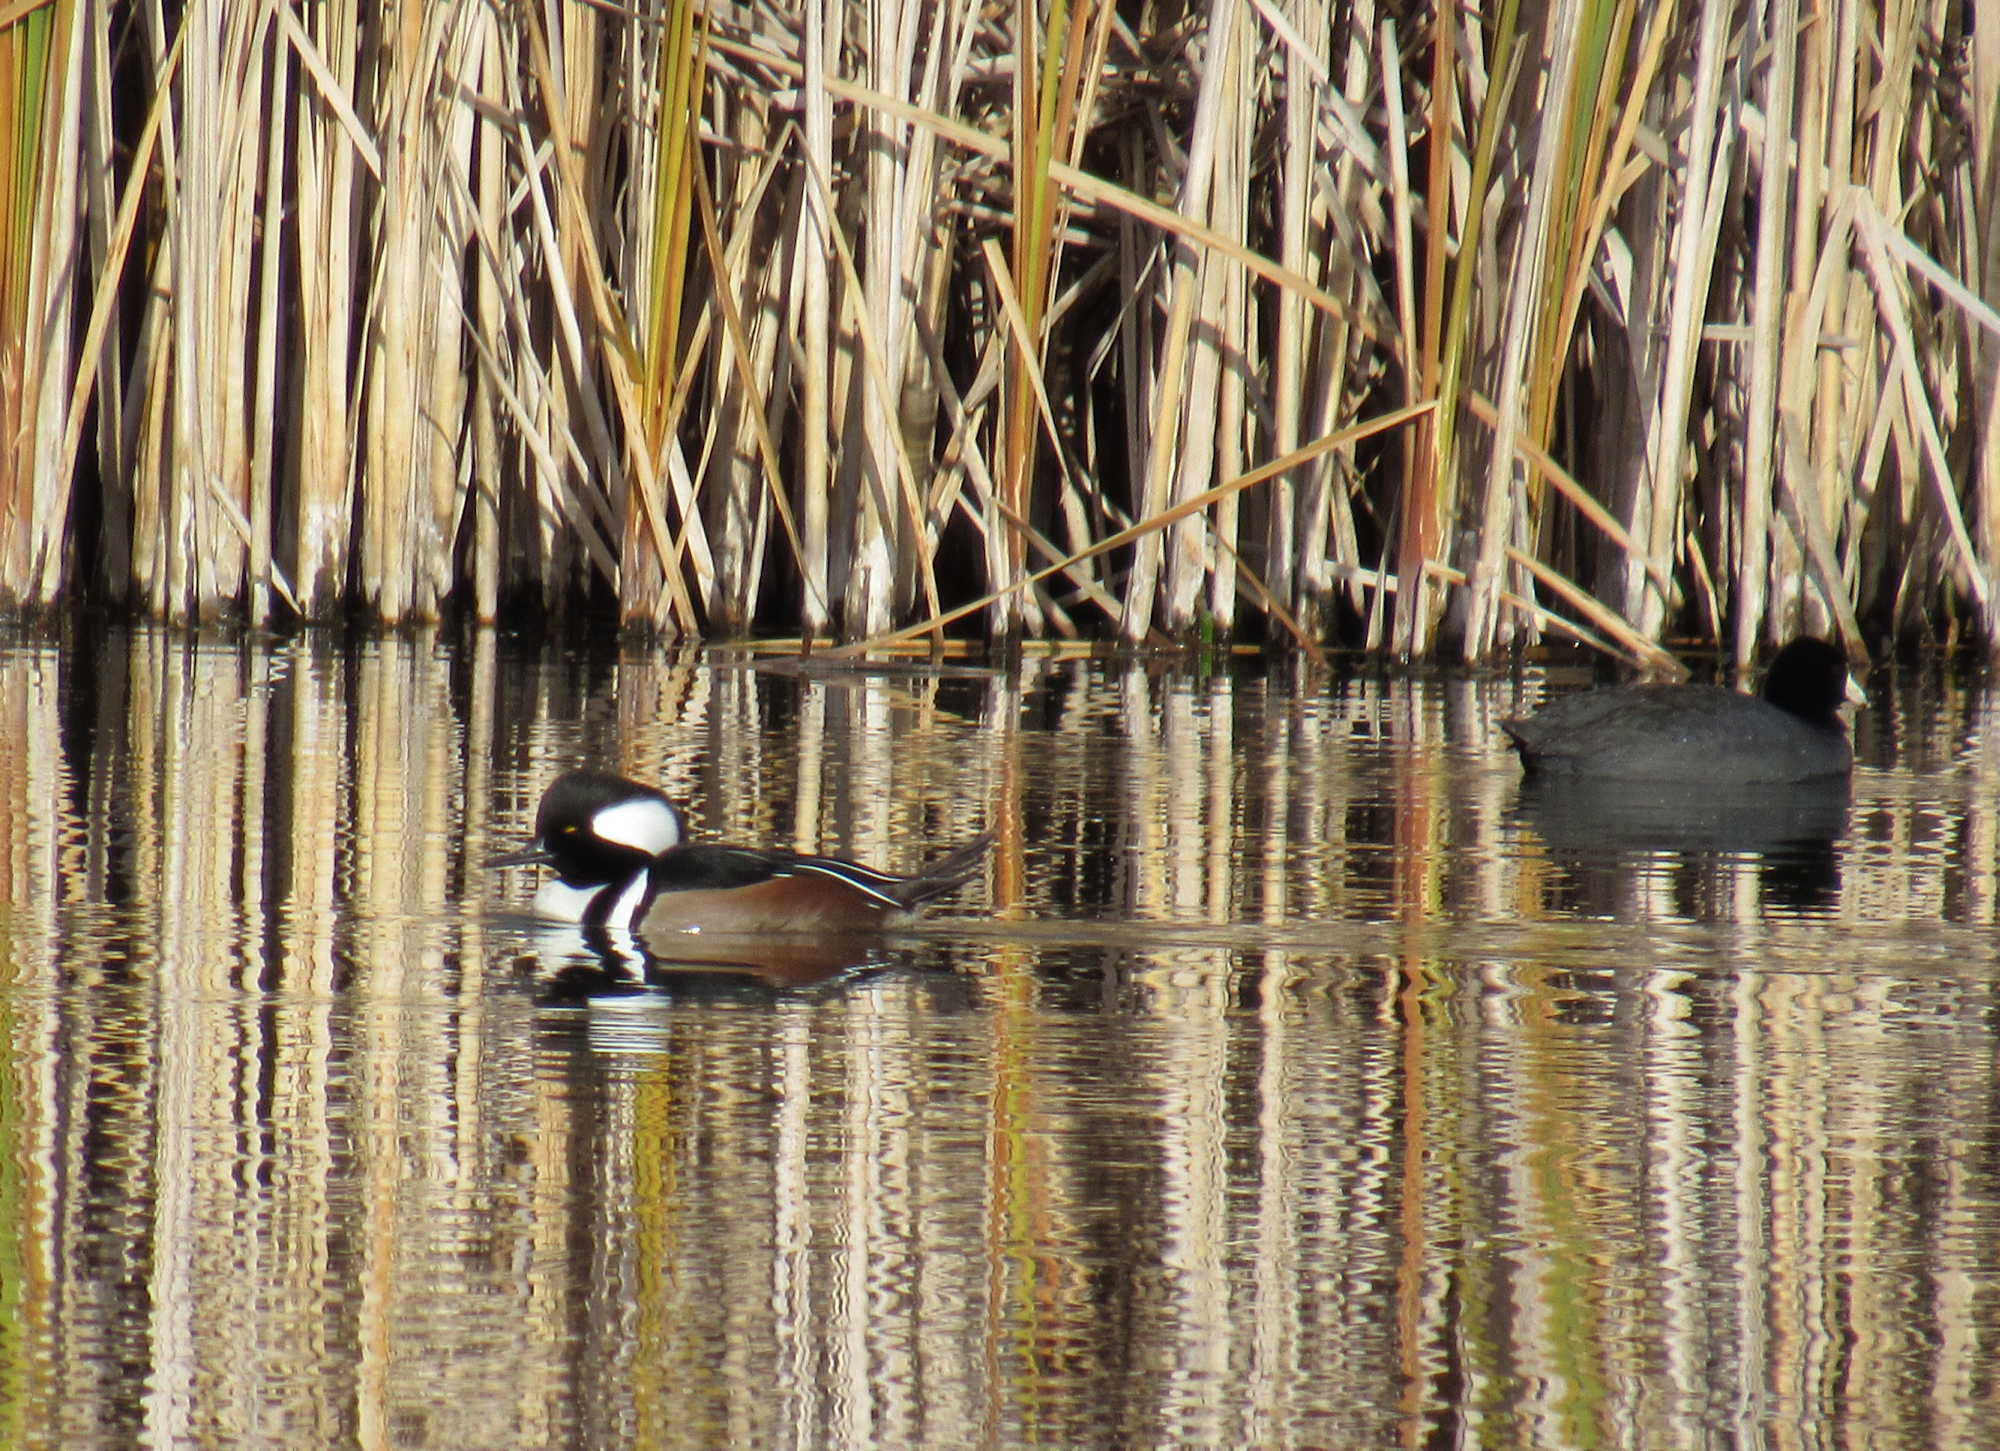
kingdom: Animalia
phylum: Chordata
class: Aves
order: Anseriformes
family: Anatidae
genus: Lophodytes
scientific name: Lophodytes cucullatus
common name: Hooded merganser
